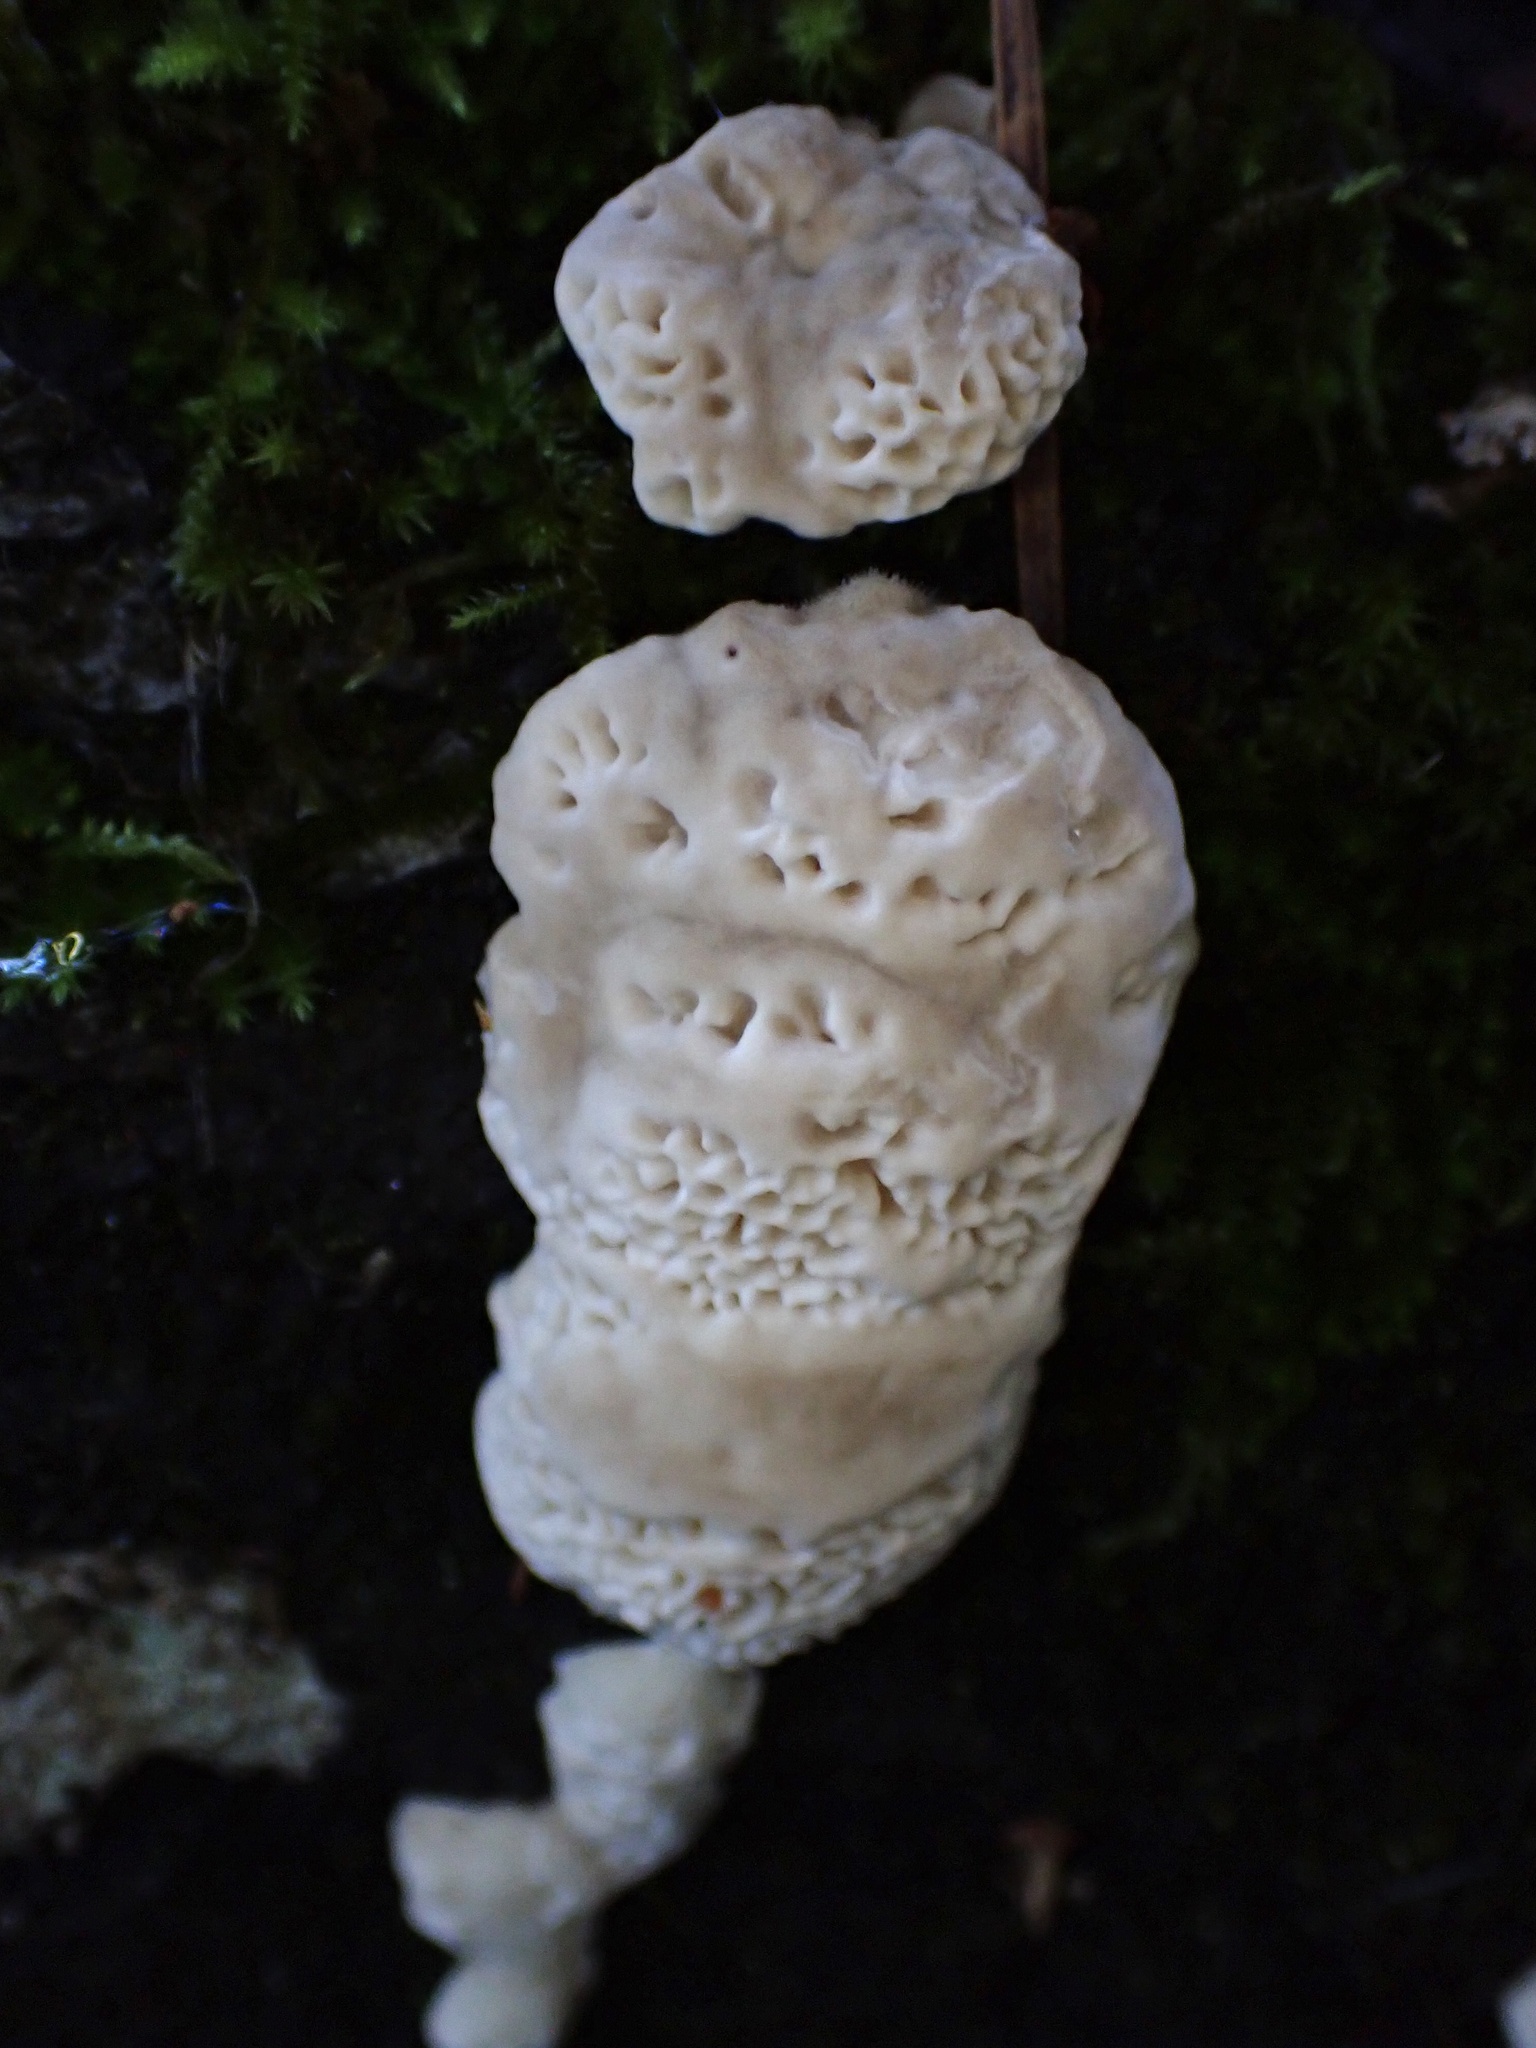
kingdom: Fungi
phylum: Basidiomycota
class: Agaricomycetes
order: Polyporales
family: Polyporaceae
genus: Lenzites
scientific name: Lenzites betulinus
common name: Birch mazegill
